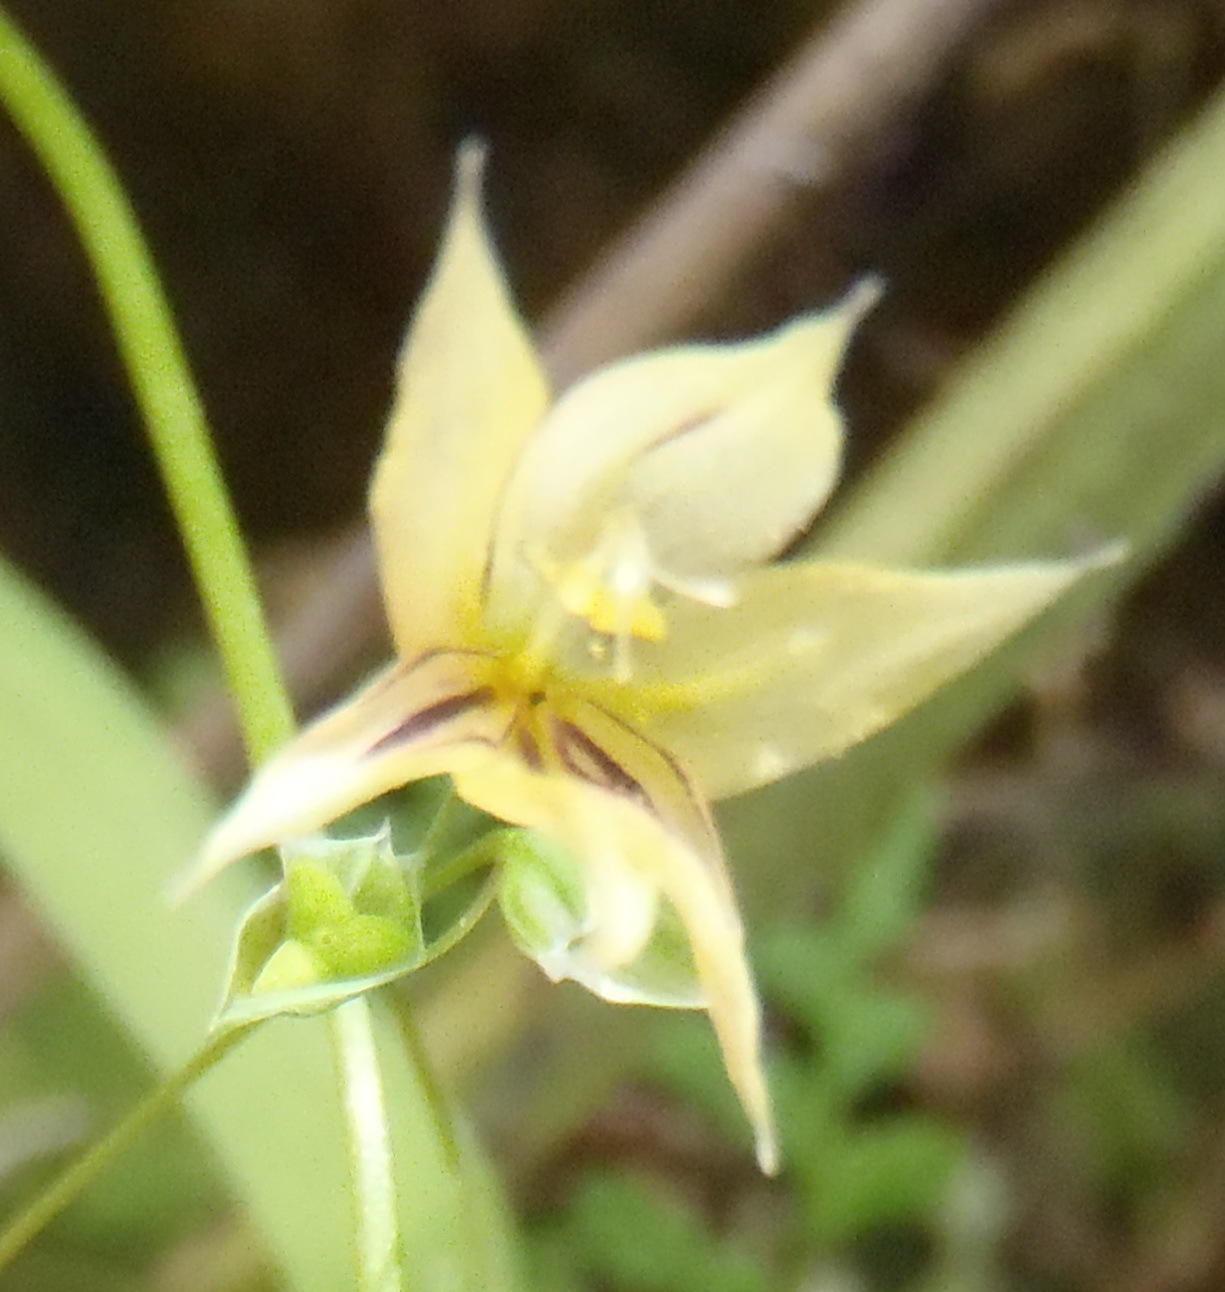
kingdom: Plantae
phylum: Tracheophyta
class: Liliopsida
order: Asparagales
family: Iridaceae
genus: Melasphaerula
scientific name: Melasphaerula graminea
